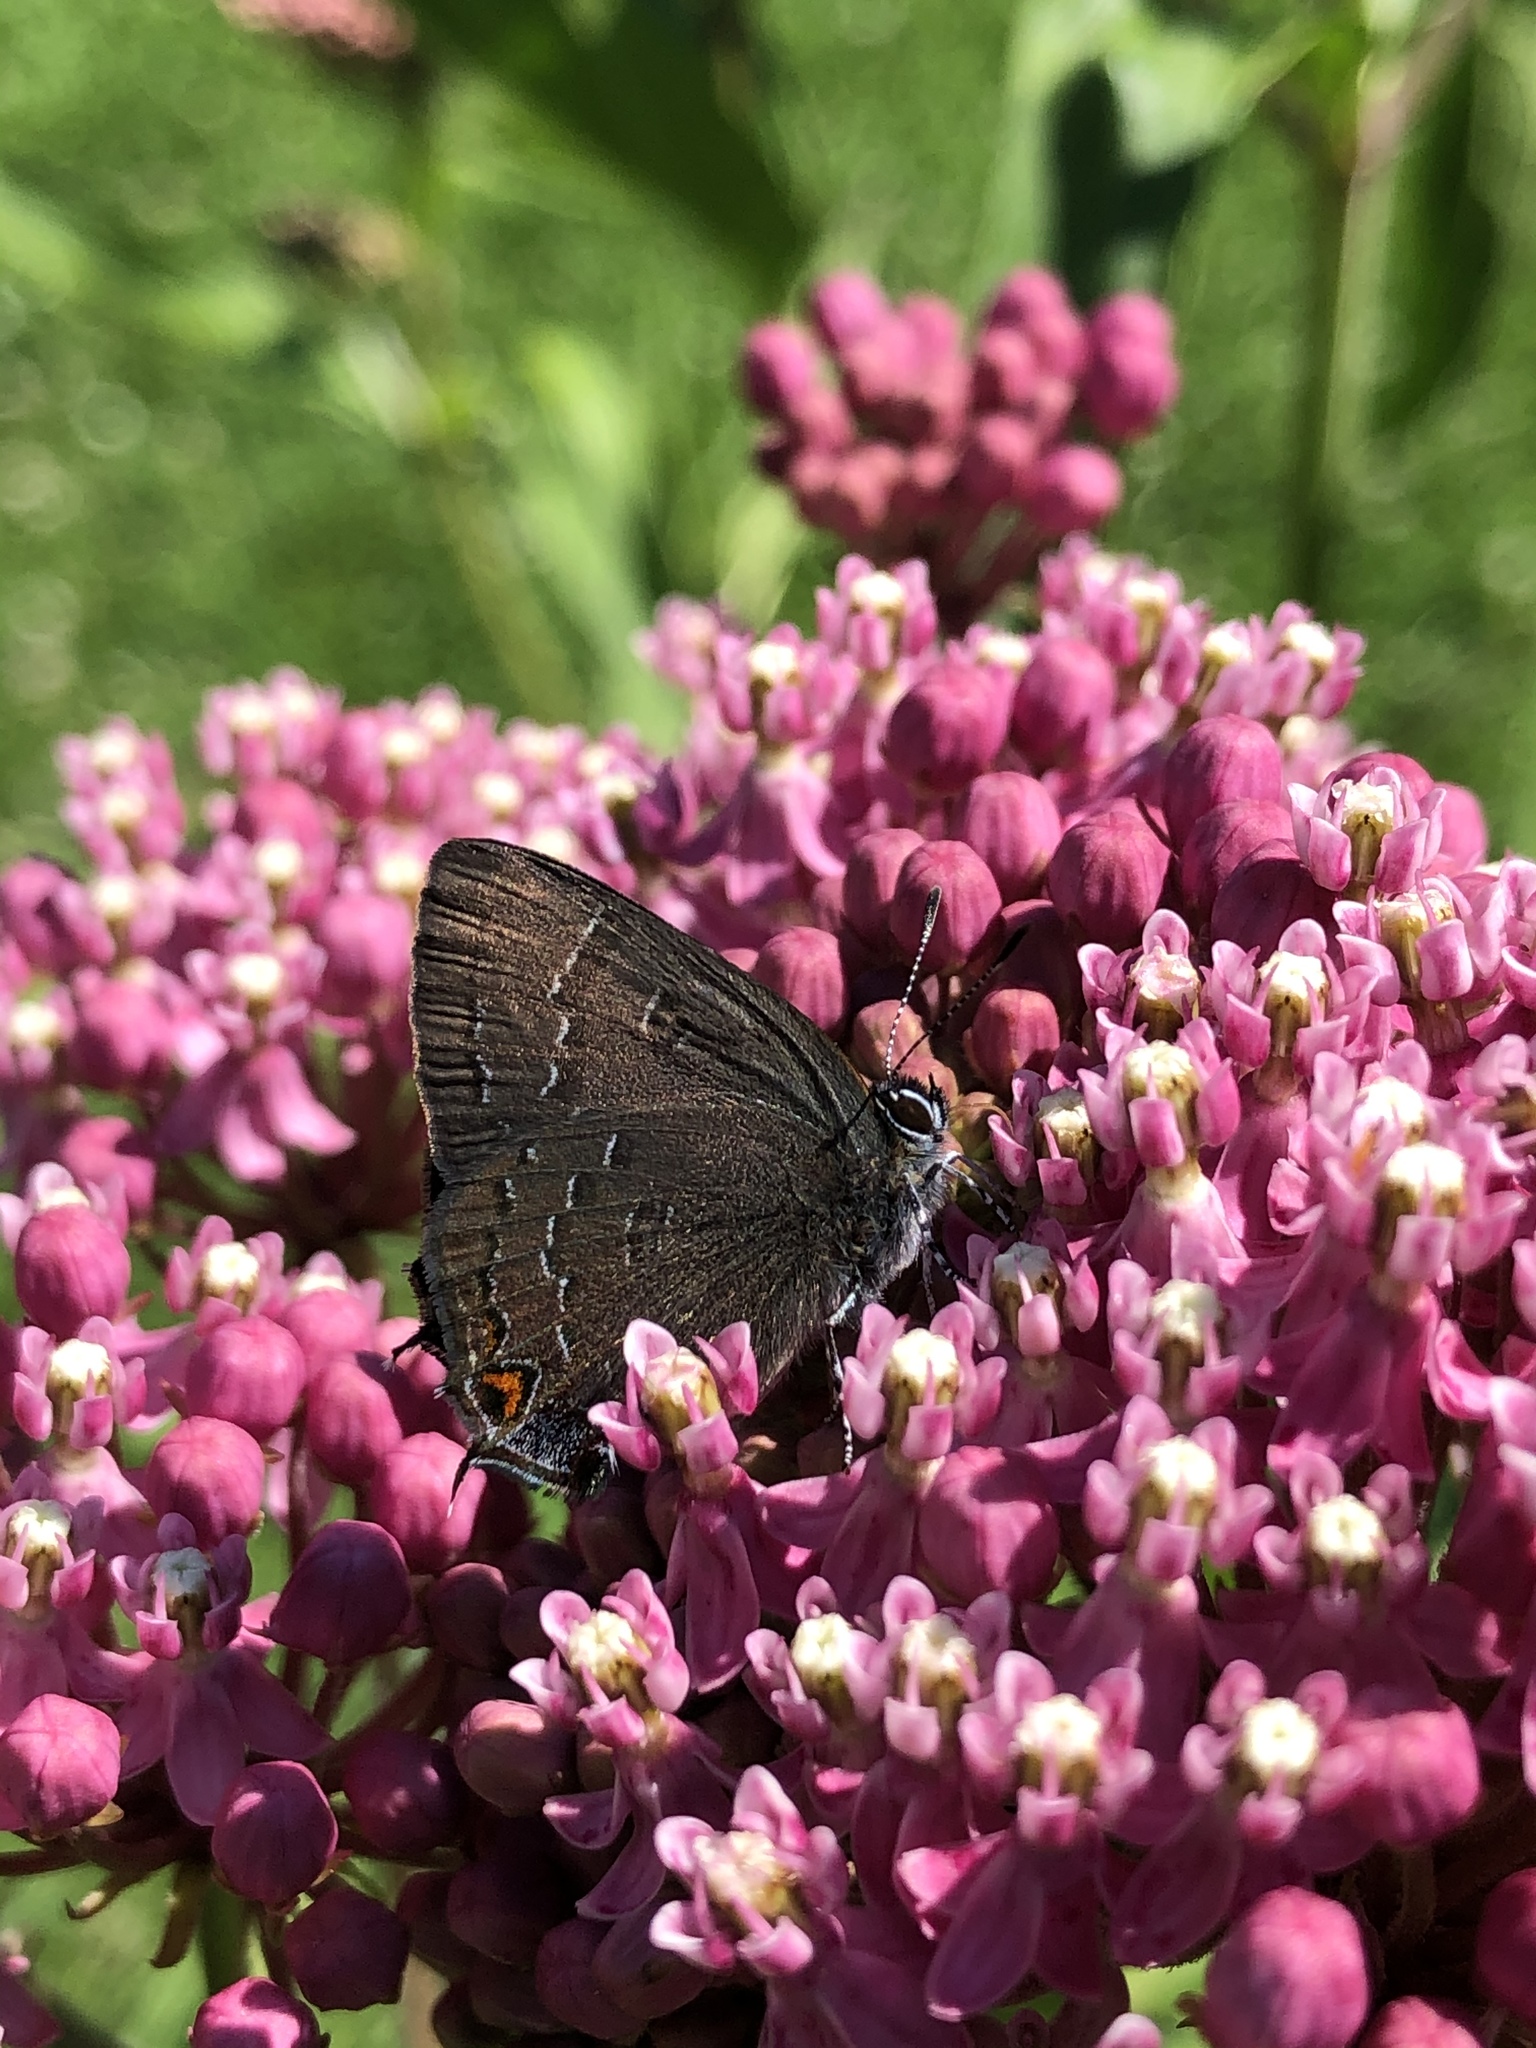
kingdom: Animalia
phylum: Arthropoda
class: Insecta
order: Lepidoptera
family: Lycaenidae
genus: Satyrium
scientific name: Satyrium calanus
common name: Banded hairstreak
